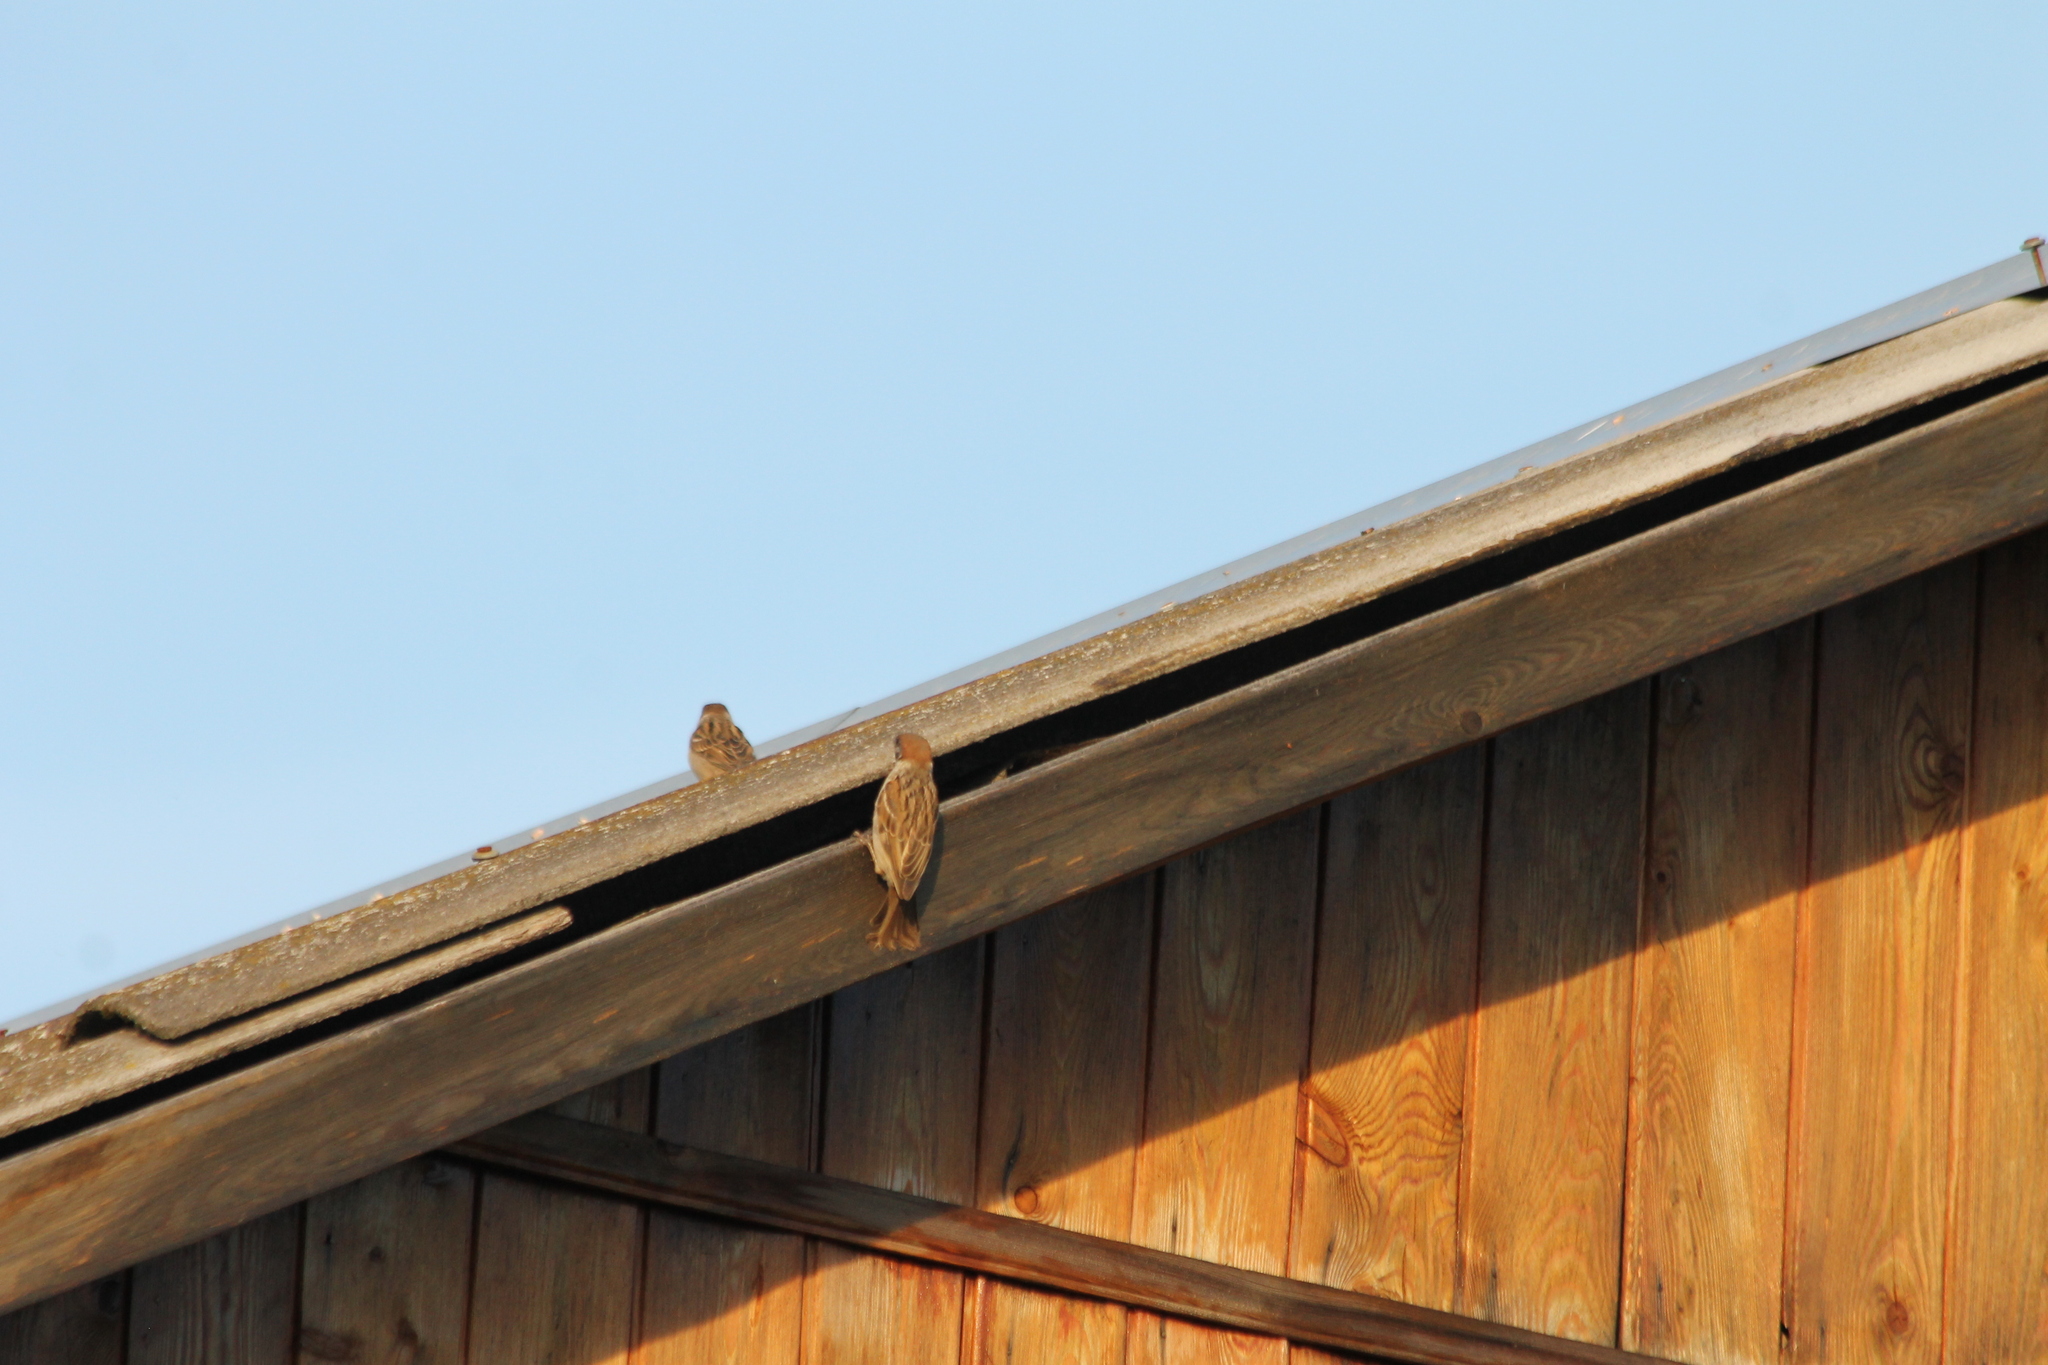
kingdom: Animalia
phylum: Chordata
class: Aves
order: Passeriformes
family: Passeridae
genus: Passer
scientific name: Passer montanus
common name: Eurasian tree sparrow
